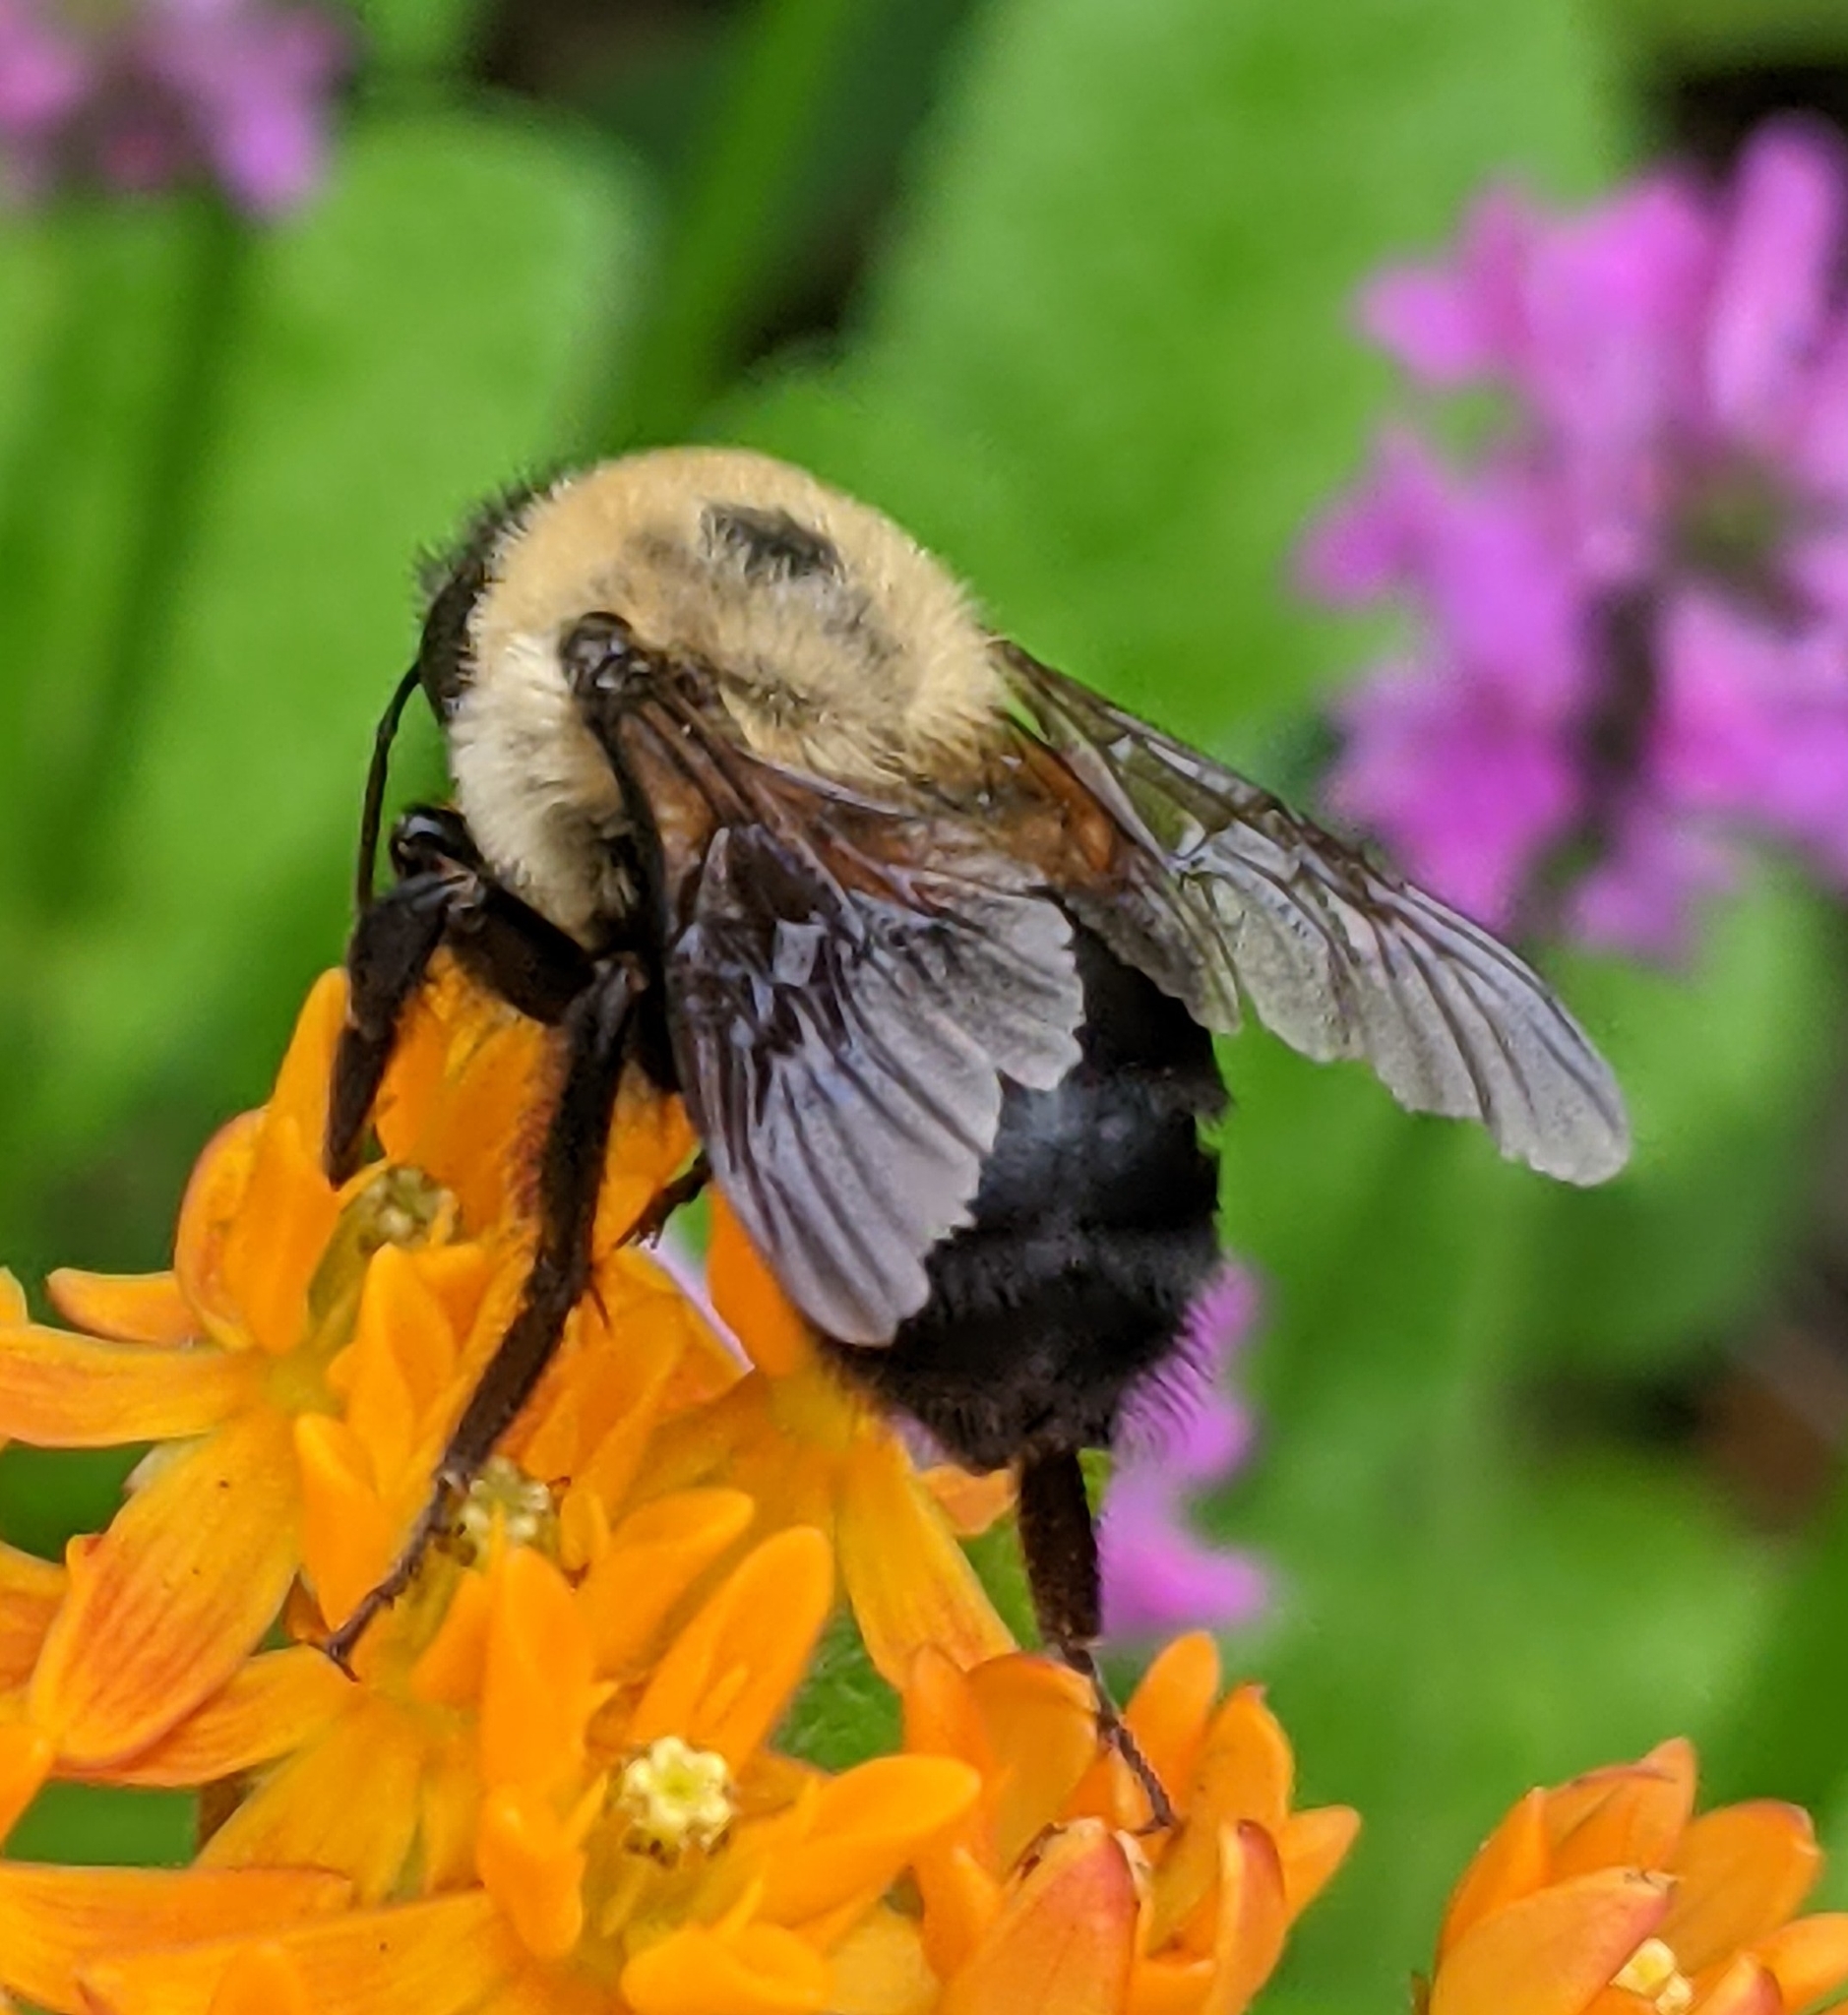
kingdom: Animalia
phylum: Arthropoda
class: Insecta
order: Hymenoptera
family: Apidae
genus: Bombus
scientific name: Bombus griseocollis
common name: Brown-belted bumble bee
